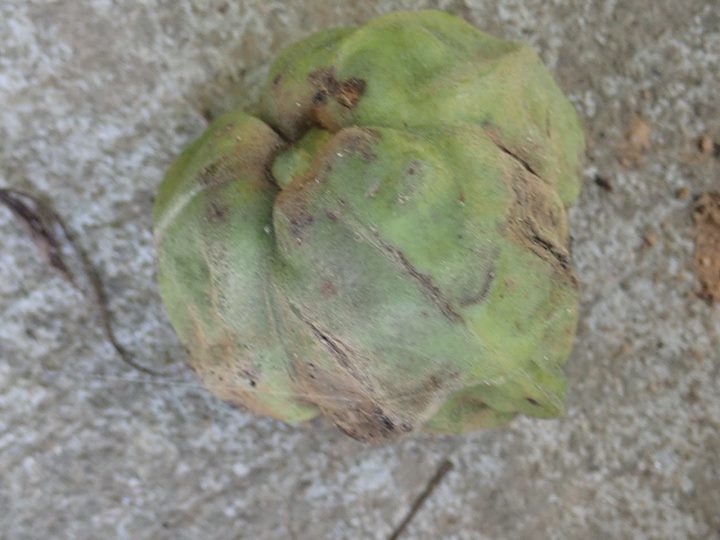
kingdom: Plantae
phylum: Tracheophyta
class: Magnoliopsida
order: Malpighiales
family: Euphorbiaceae
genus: Vernicia
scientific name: Vernicia montana
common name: Mu oil tree
